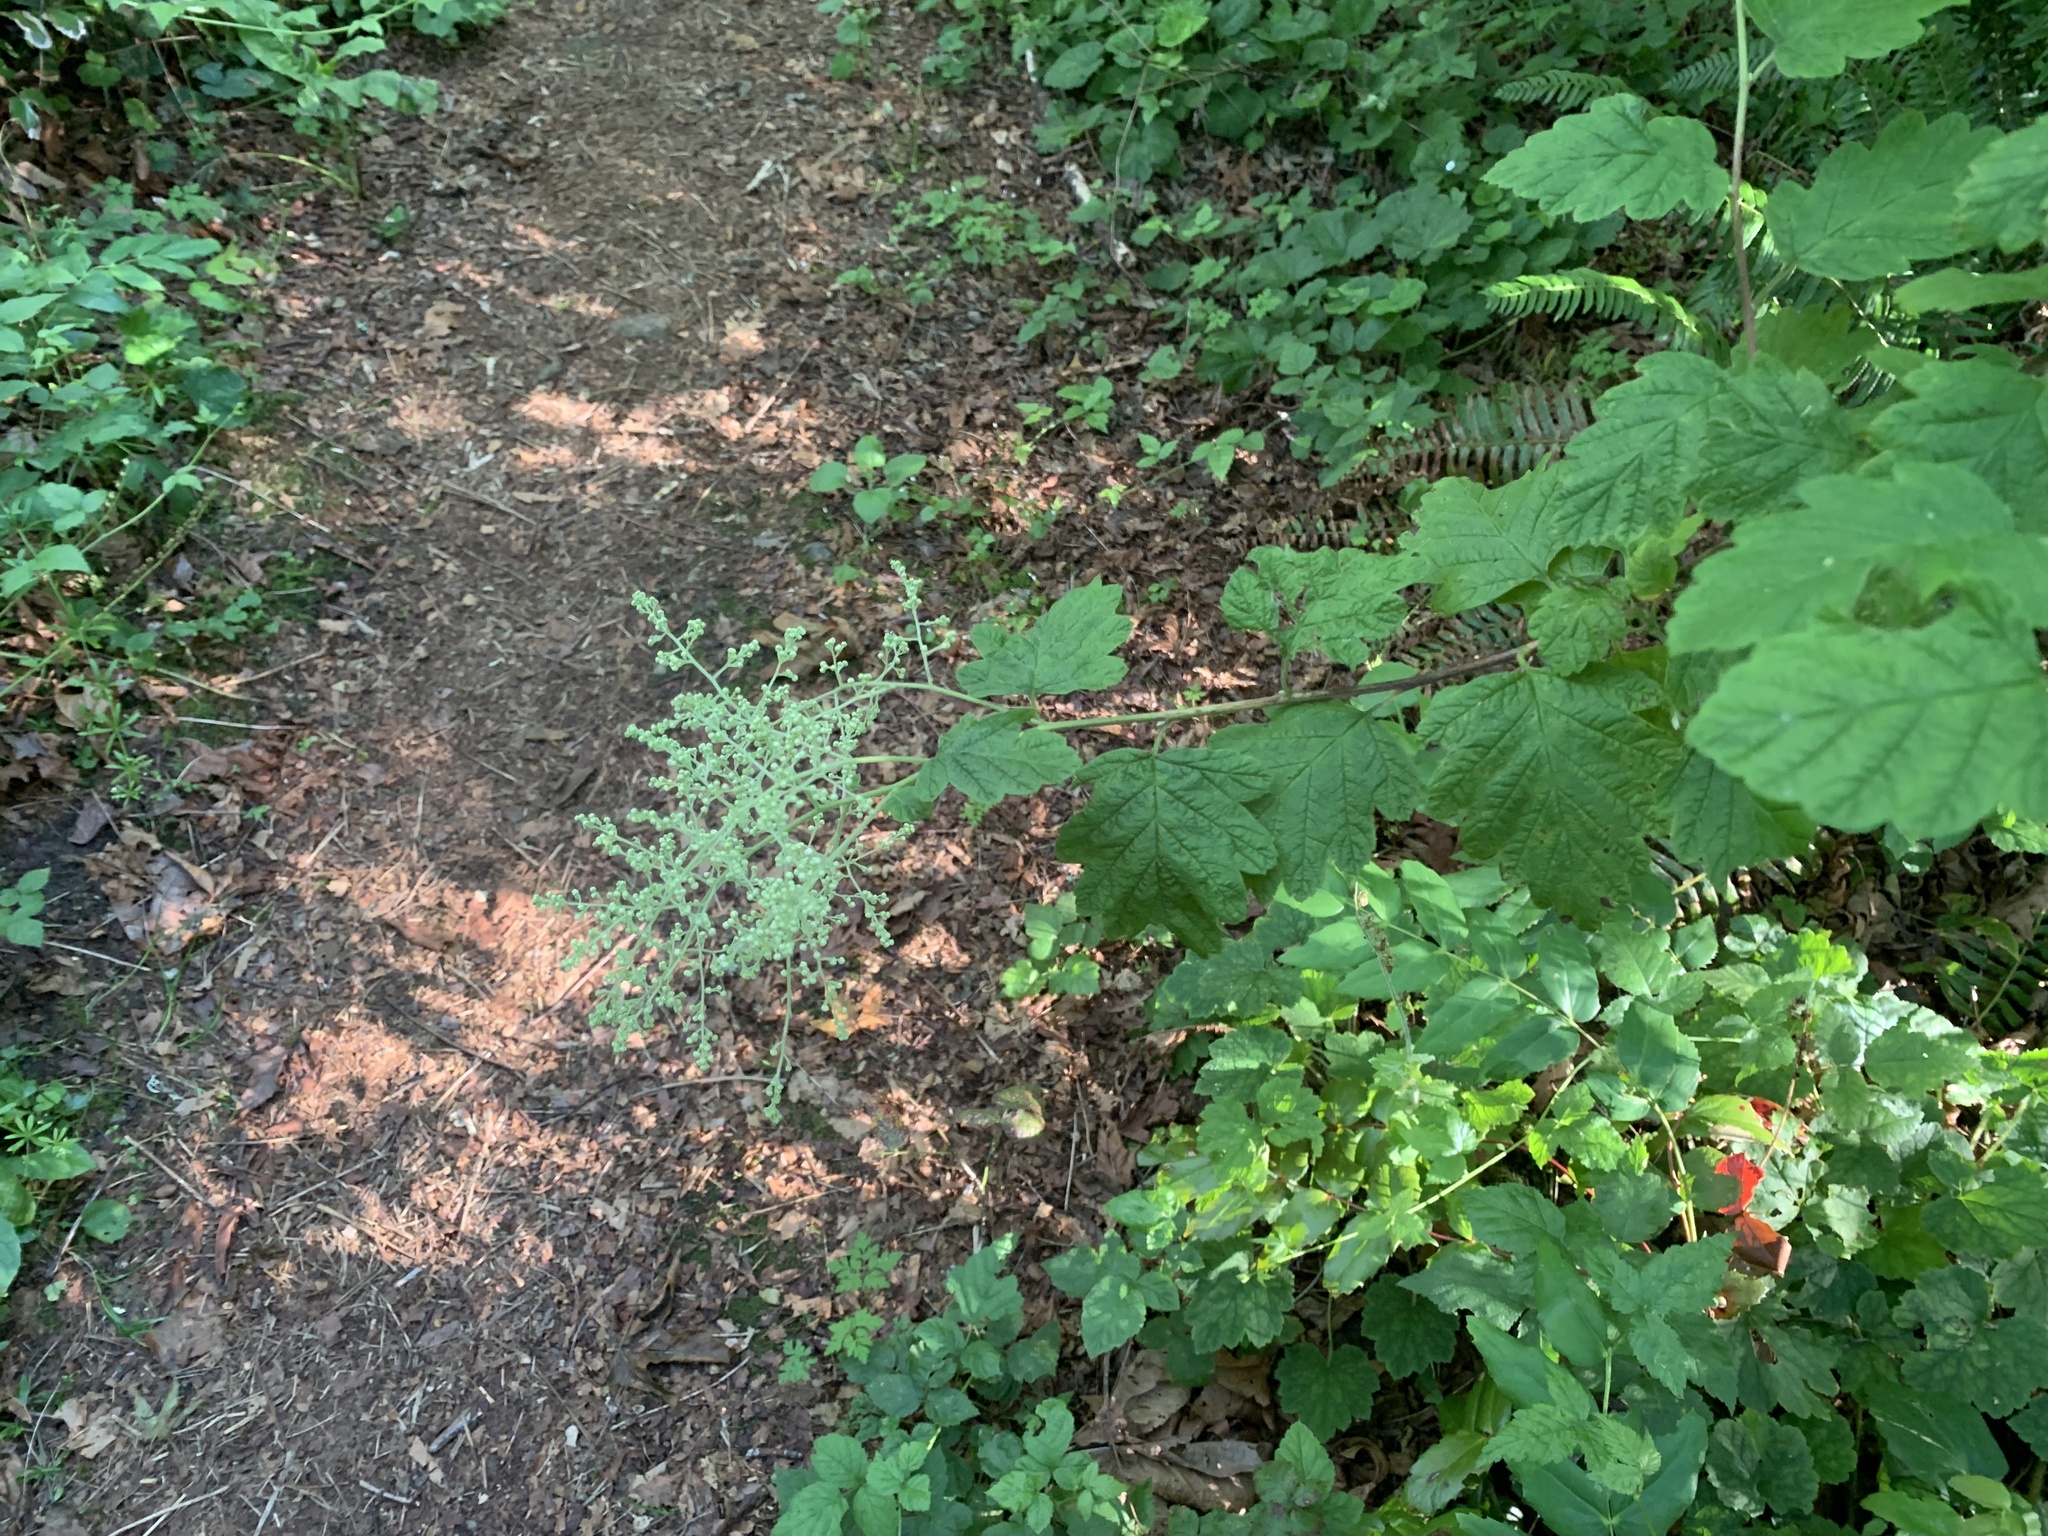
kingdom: Plantae
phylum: Tracheophyta
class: Magnoliopsida
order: Rosales
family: Rosaceae
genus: Holodiscus
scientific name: Holodiscus discolor
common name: Oceanspray
